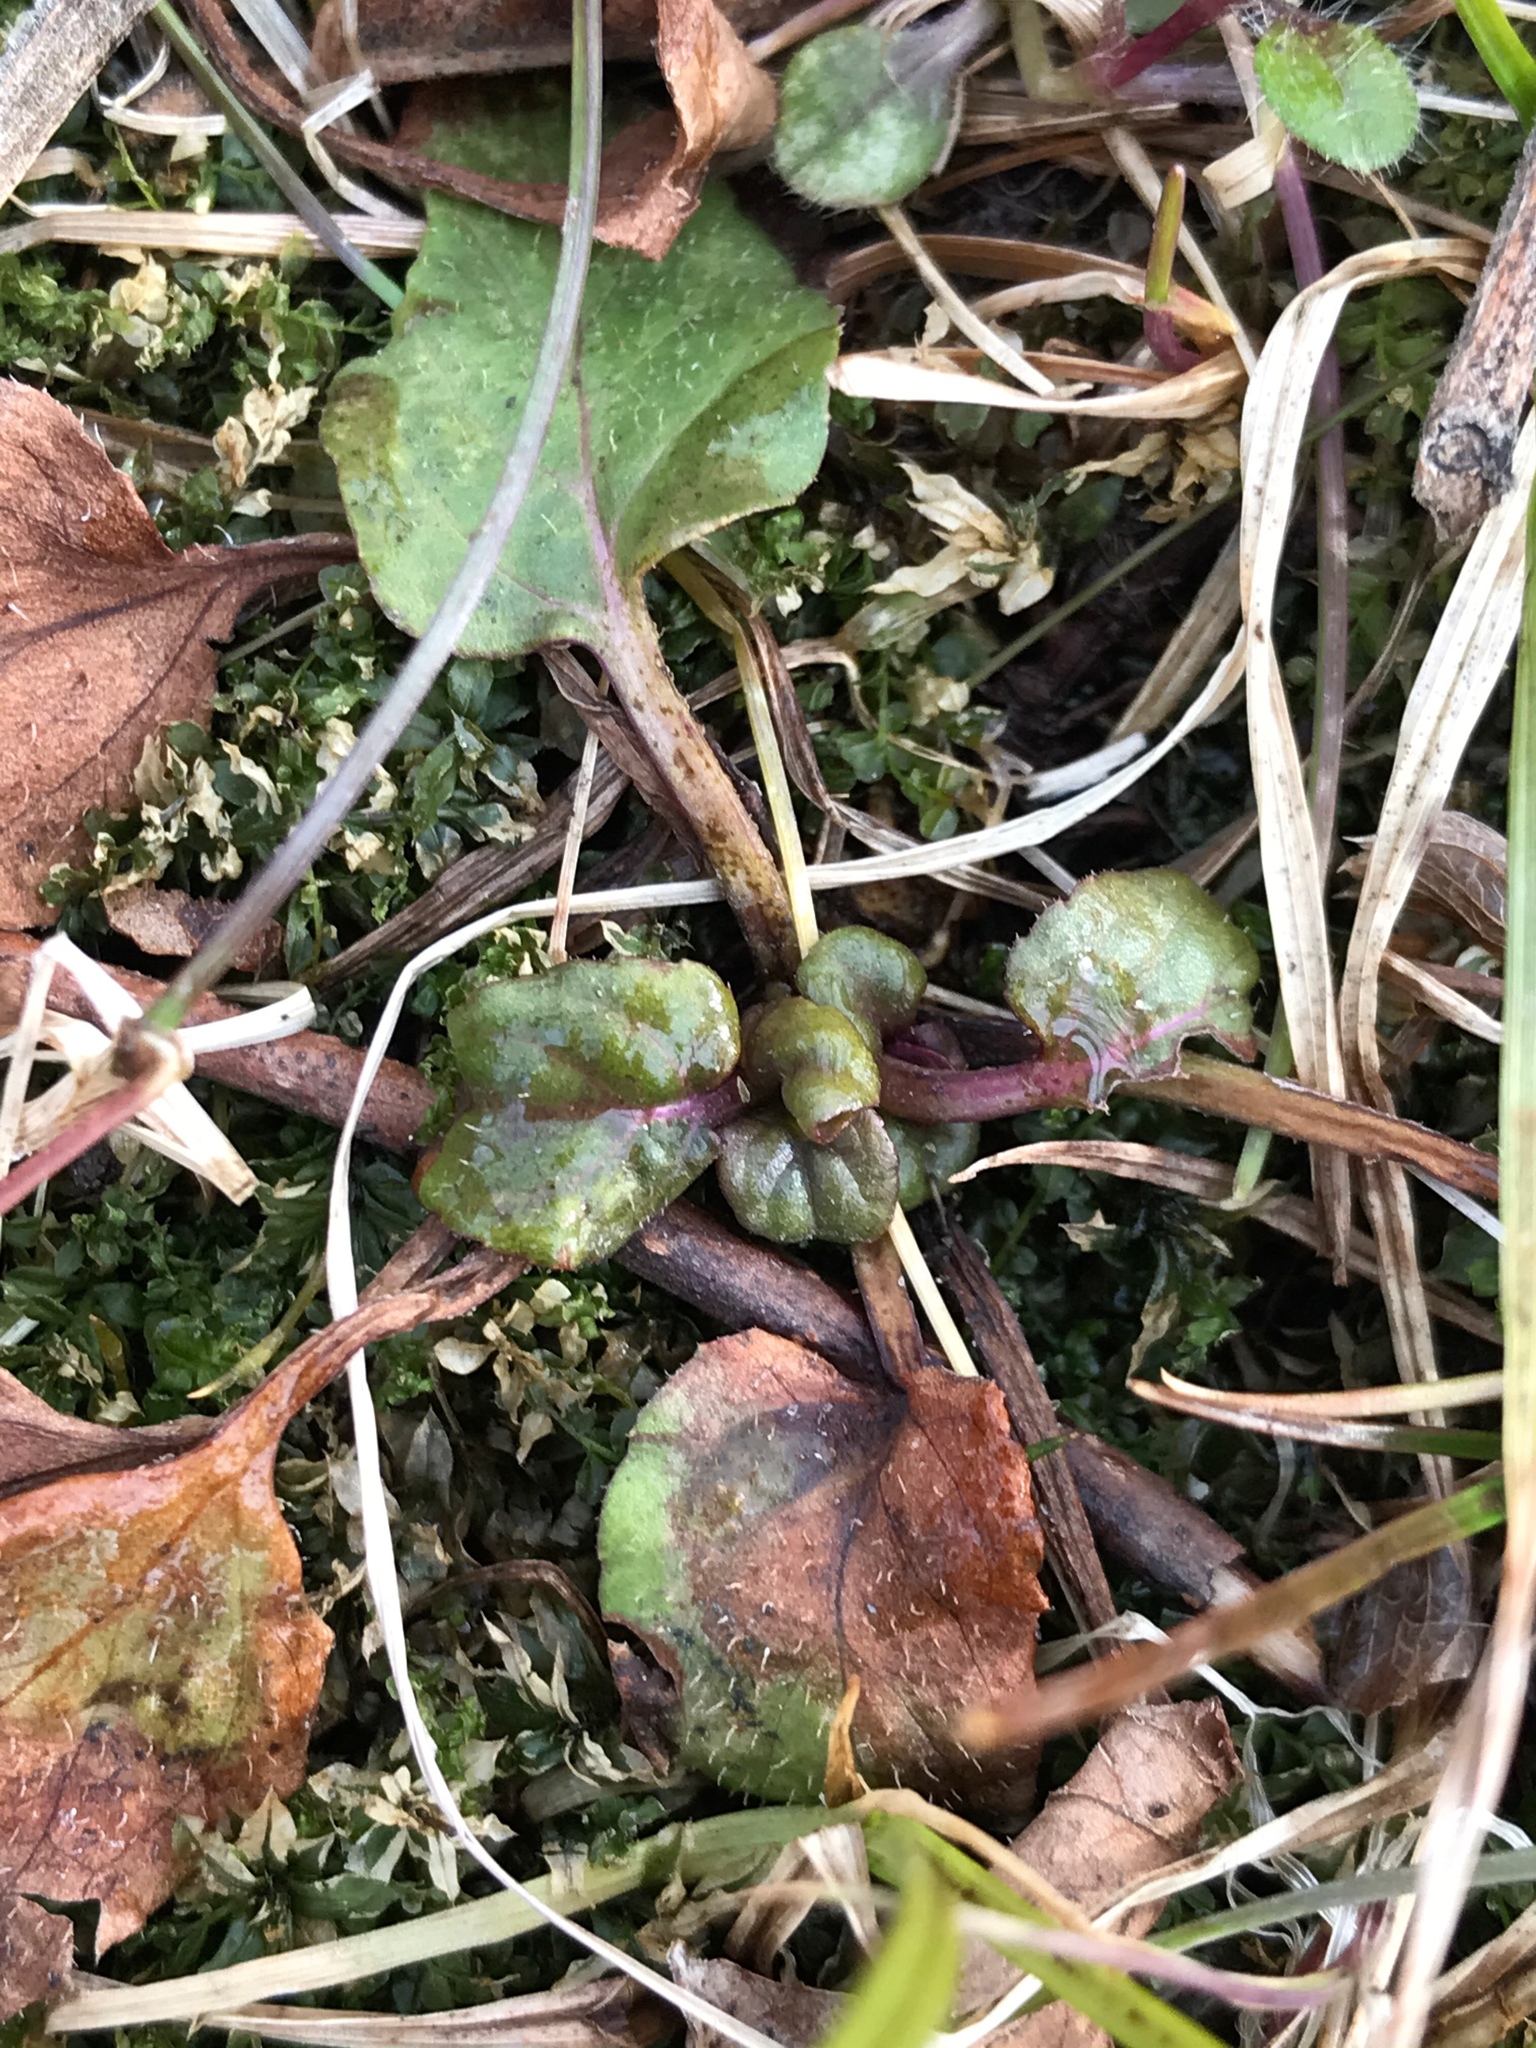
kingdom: Plantae
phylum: Tracheophyta
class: Magnoliopsida
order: Lamiales
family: Lamiaceae
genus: Prunella
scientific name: Prunella vulgaris
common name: Heal-all
